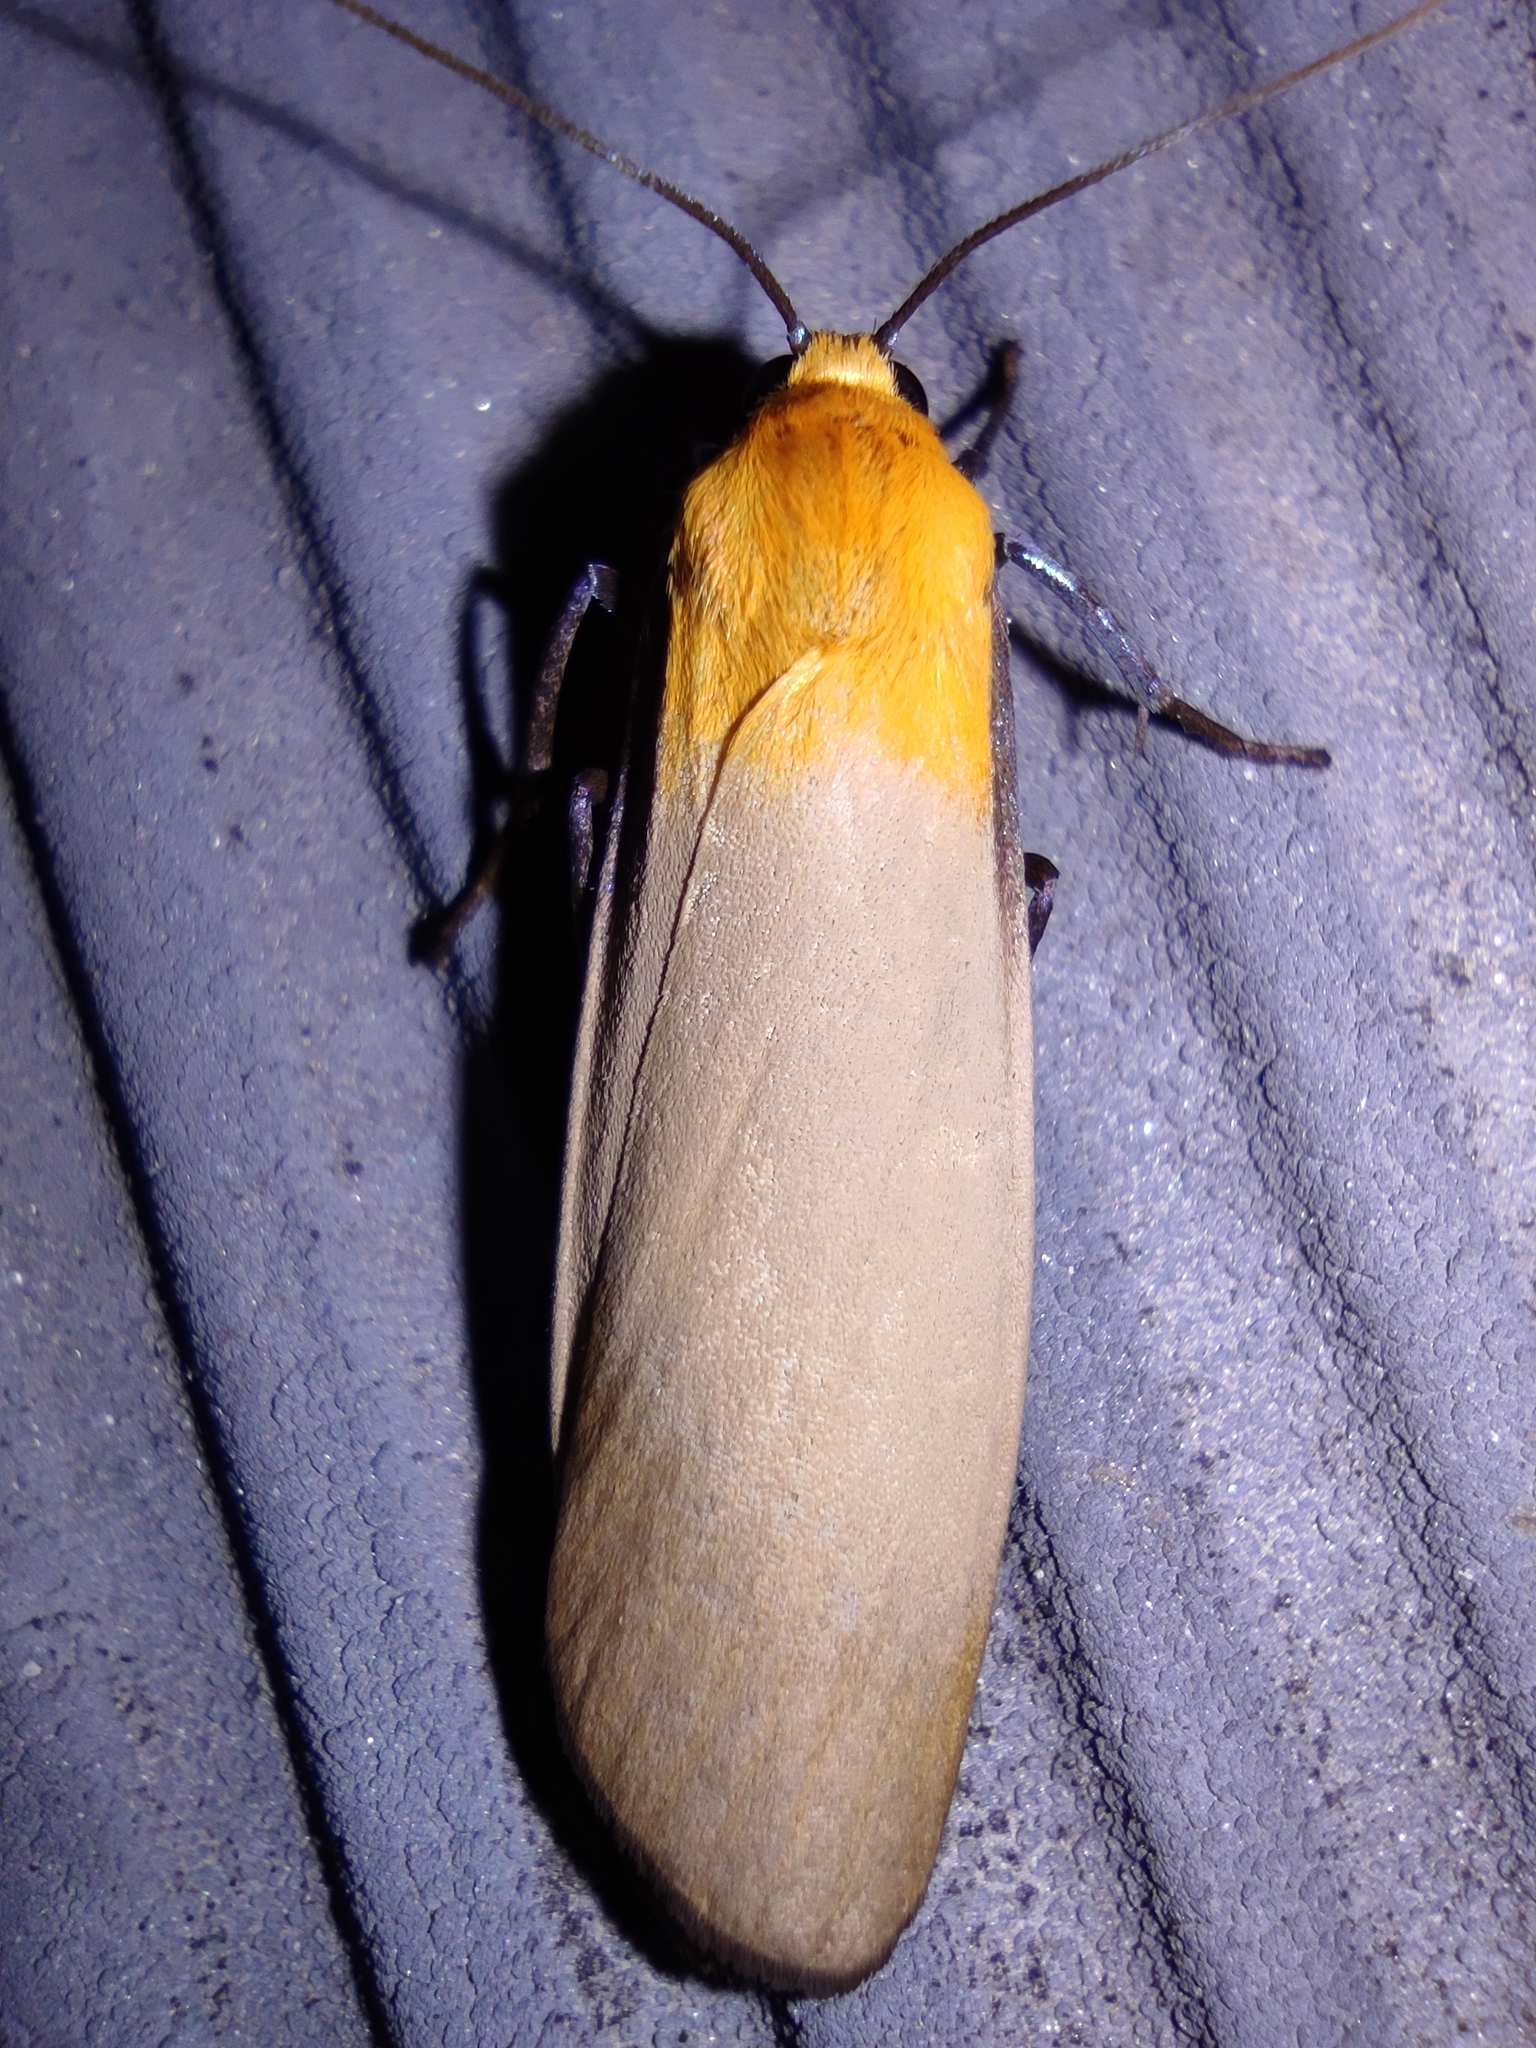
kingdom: Animalia
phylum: Arthropoda
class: Insecta
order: Lepidoptera
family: Erebidae
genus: Lithosia
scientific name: Lithosia quadra
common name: Four-spotted footman
